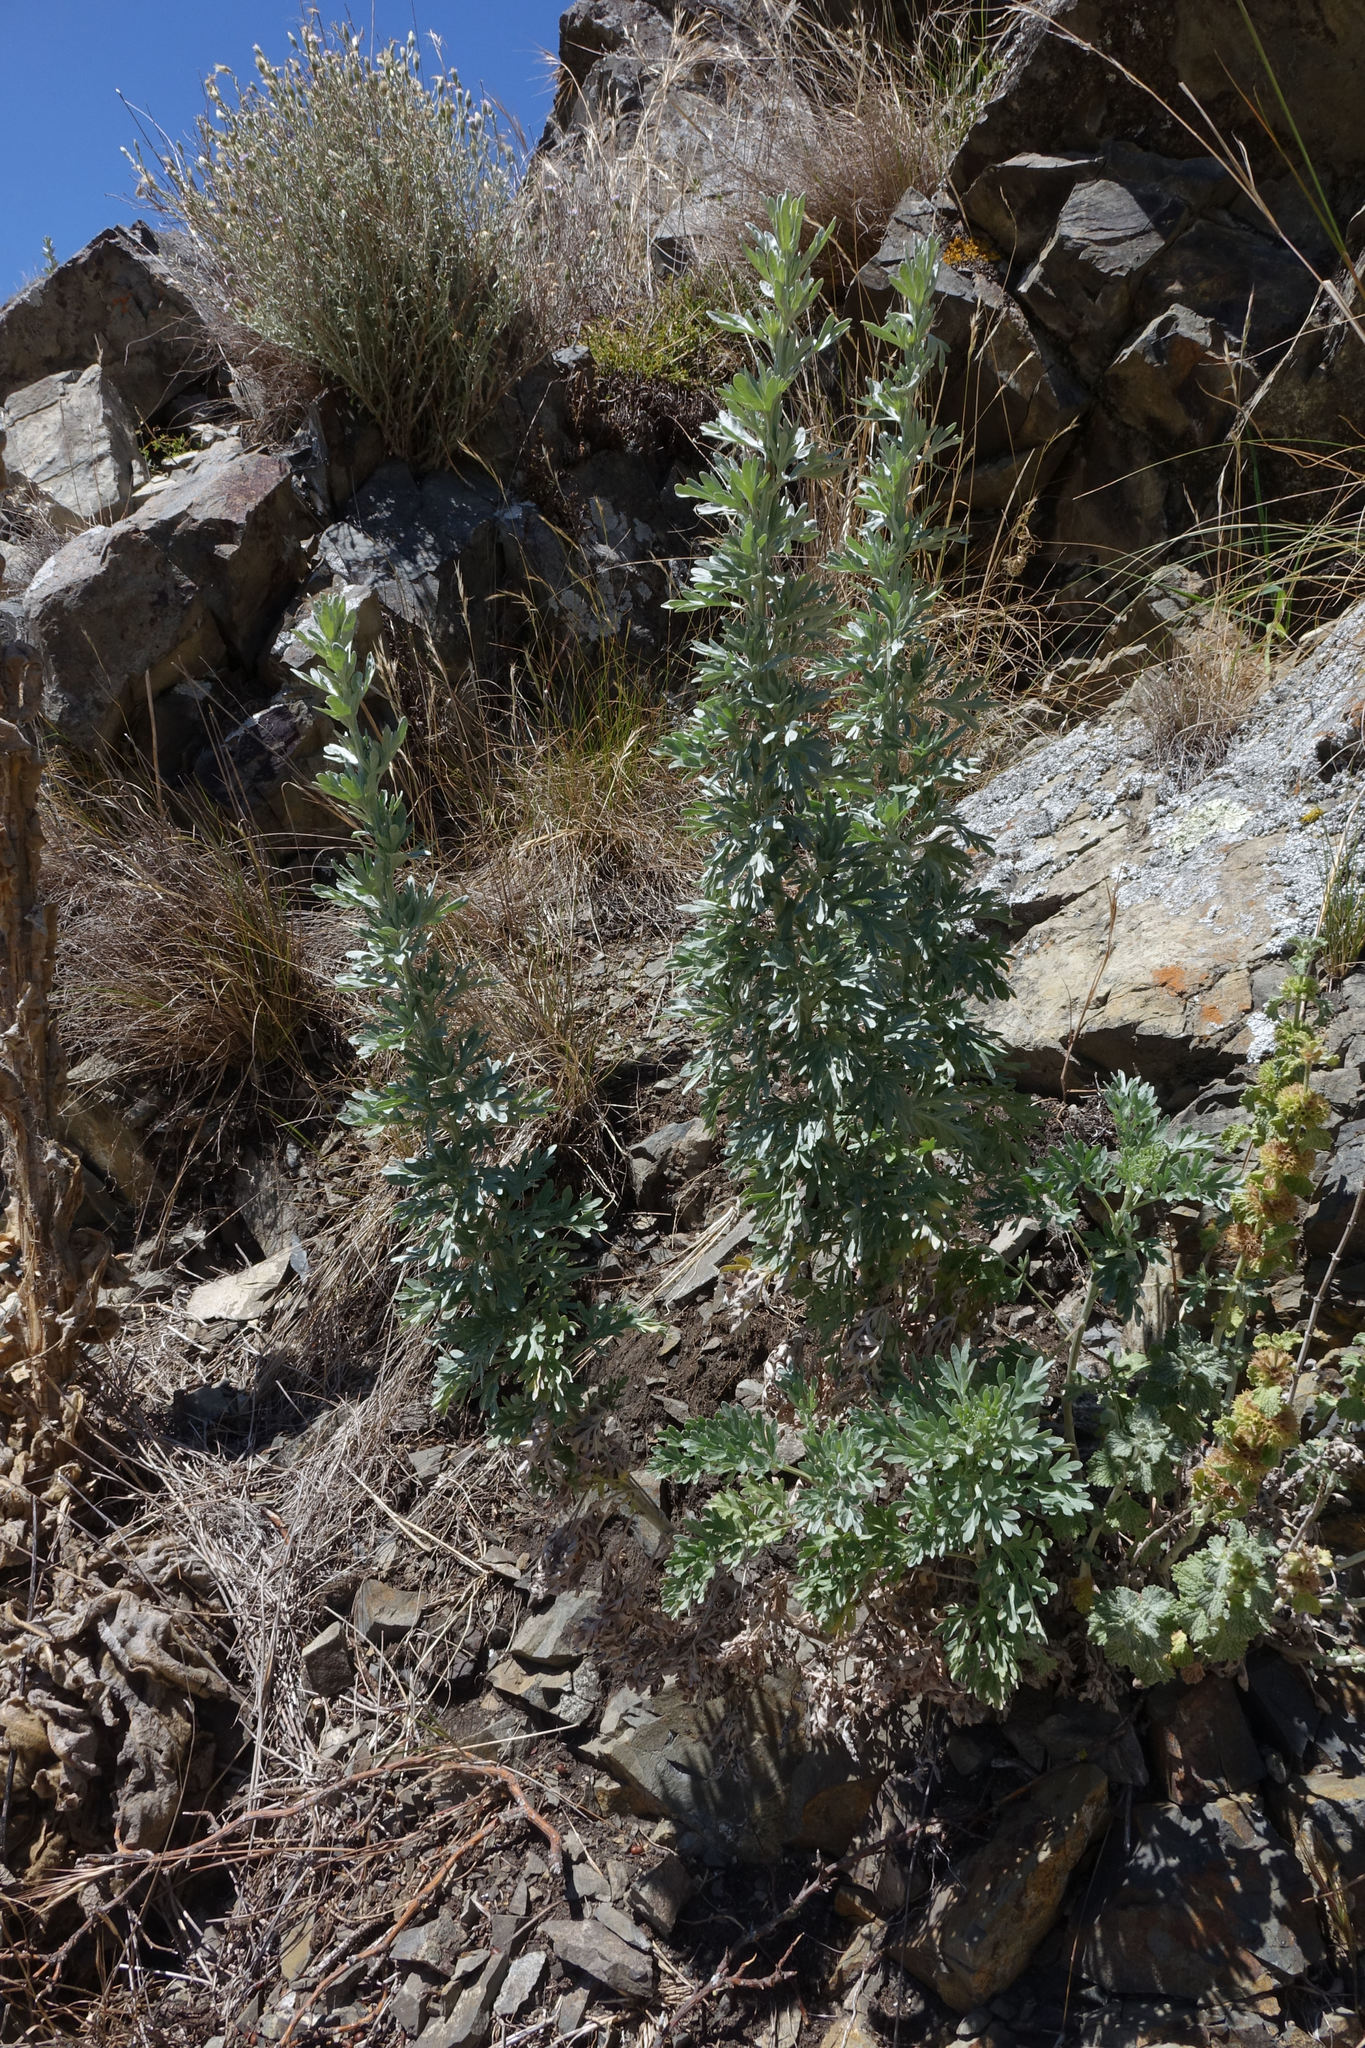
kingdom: Plantae
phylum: Tracheophyta
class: Magnoliopsida
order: Asterales
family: Asteraceae
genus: Artemisia
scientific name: Artemisia absinthium
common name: Wormwood
